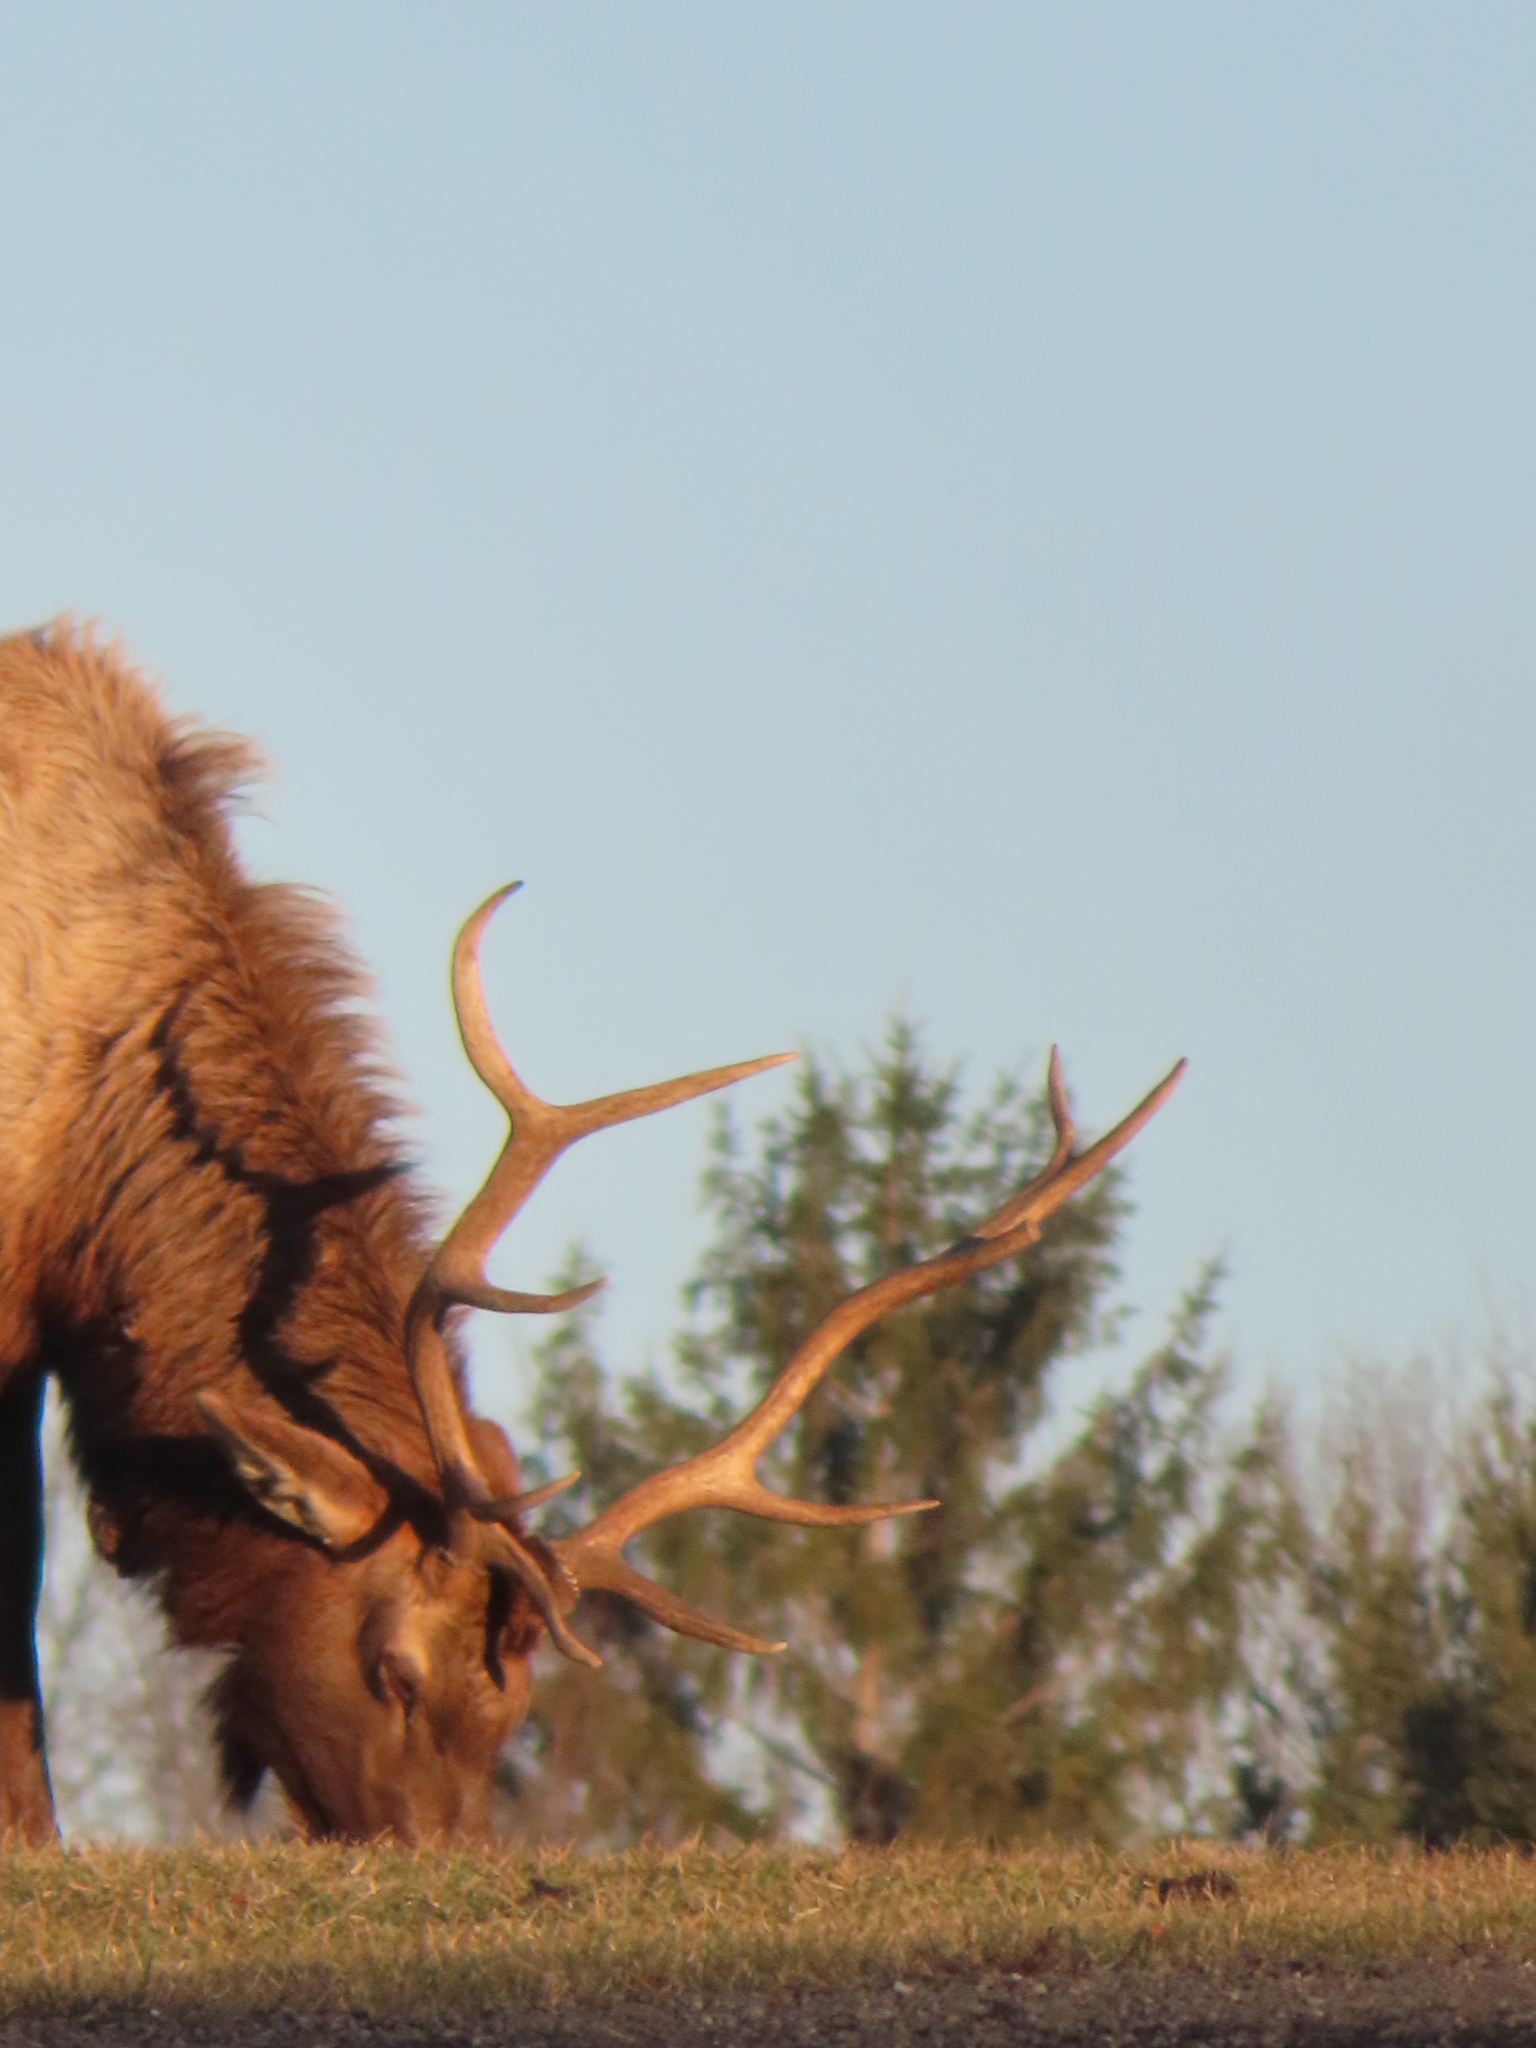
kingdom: Animalia
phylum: Chordata
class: Mammalia
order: Artiodactyla
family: Cervidae
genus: Cervus
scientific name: Cervus elaphus
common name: Red deer
